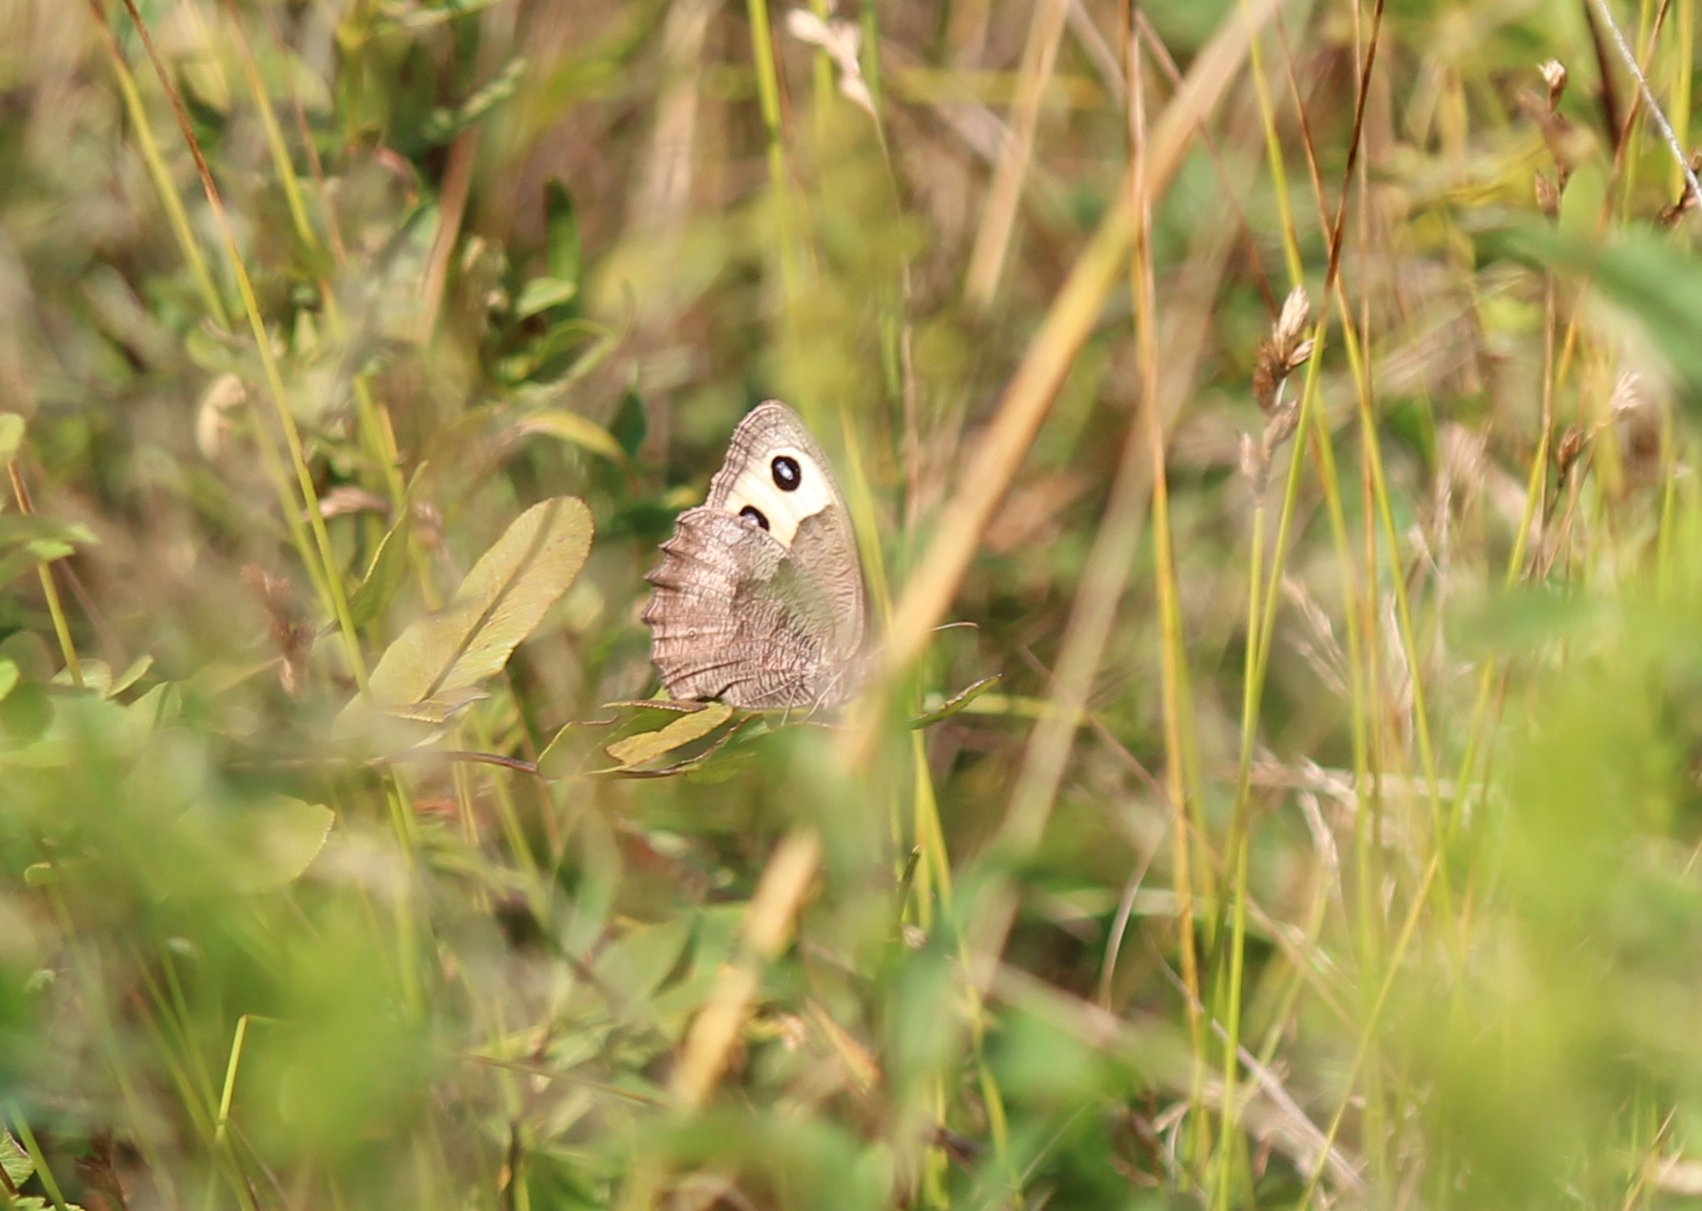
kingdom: Animalia
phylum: Arthropoda
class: Insecta
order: Lepidoptera
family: Nymphalidae
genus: Cercyonis
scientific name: Cercyonis pegala
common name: Common wood-nymph
